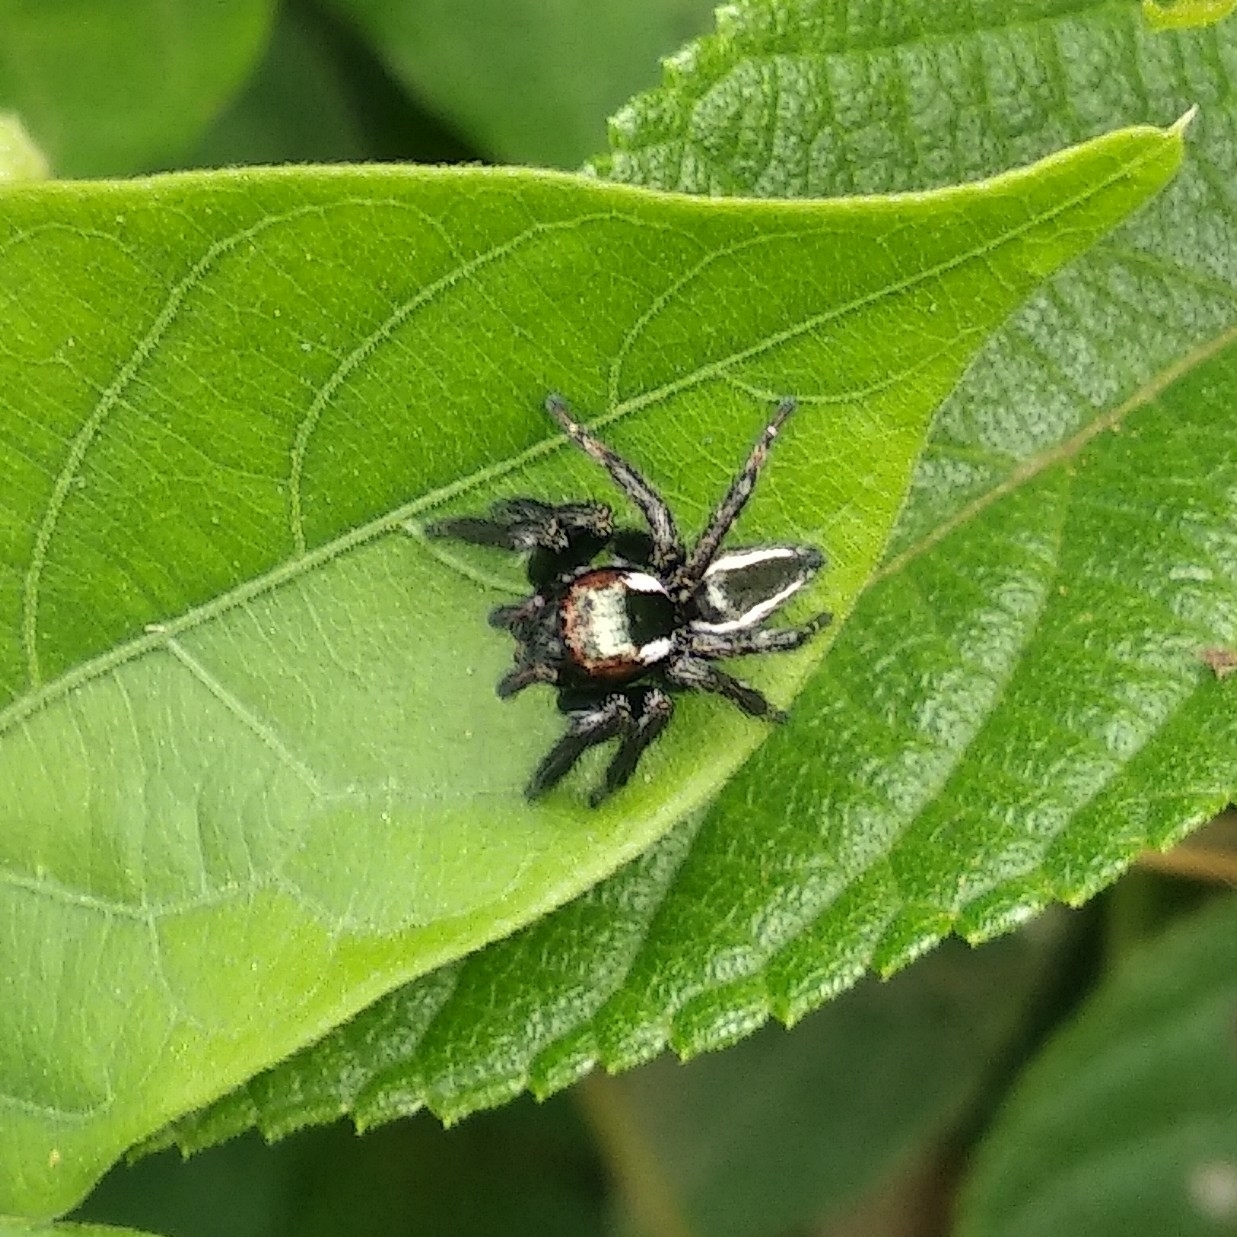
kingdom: Animalia
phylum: Arthropoda
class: Arachnida
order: Araneae
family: Salticidae
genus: Carrhotus
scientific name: Carrhotus viduus
